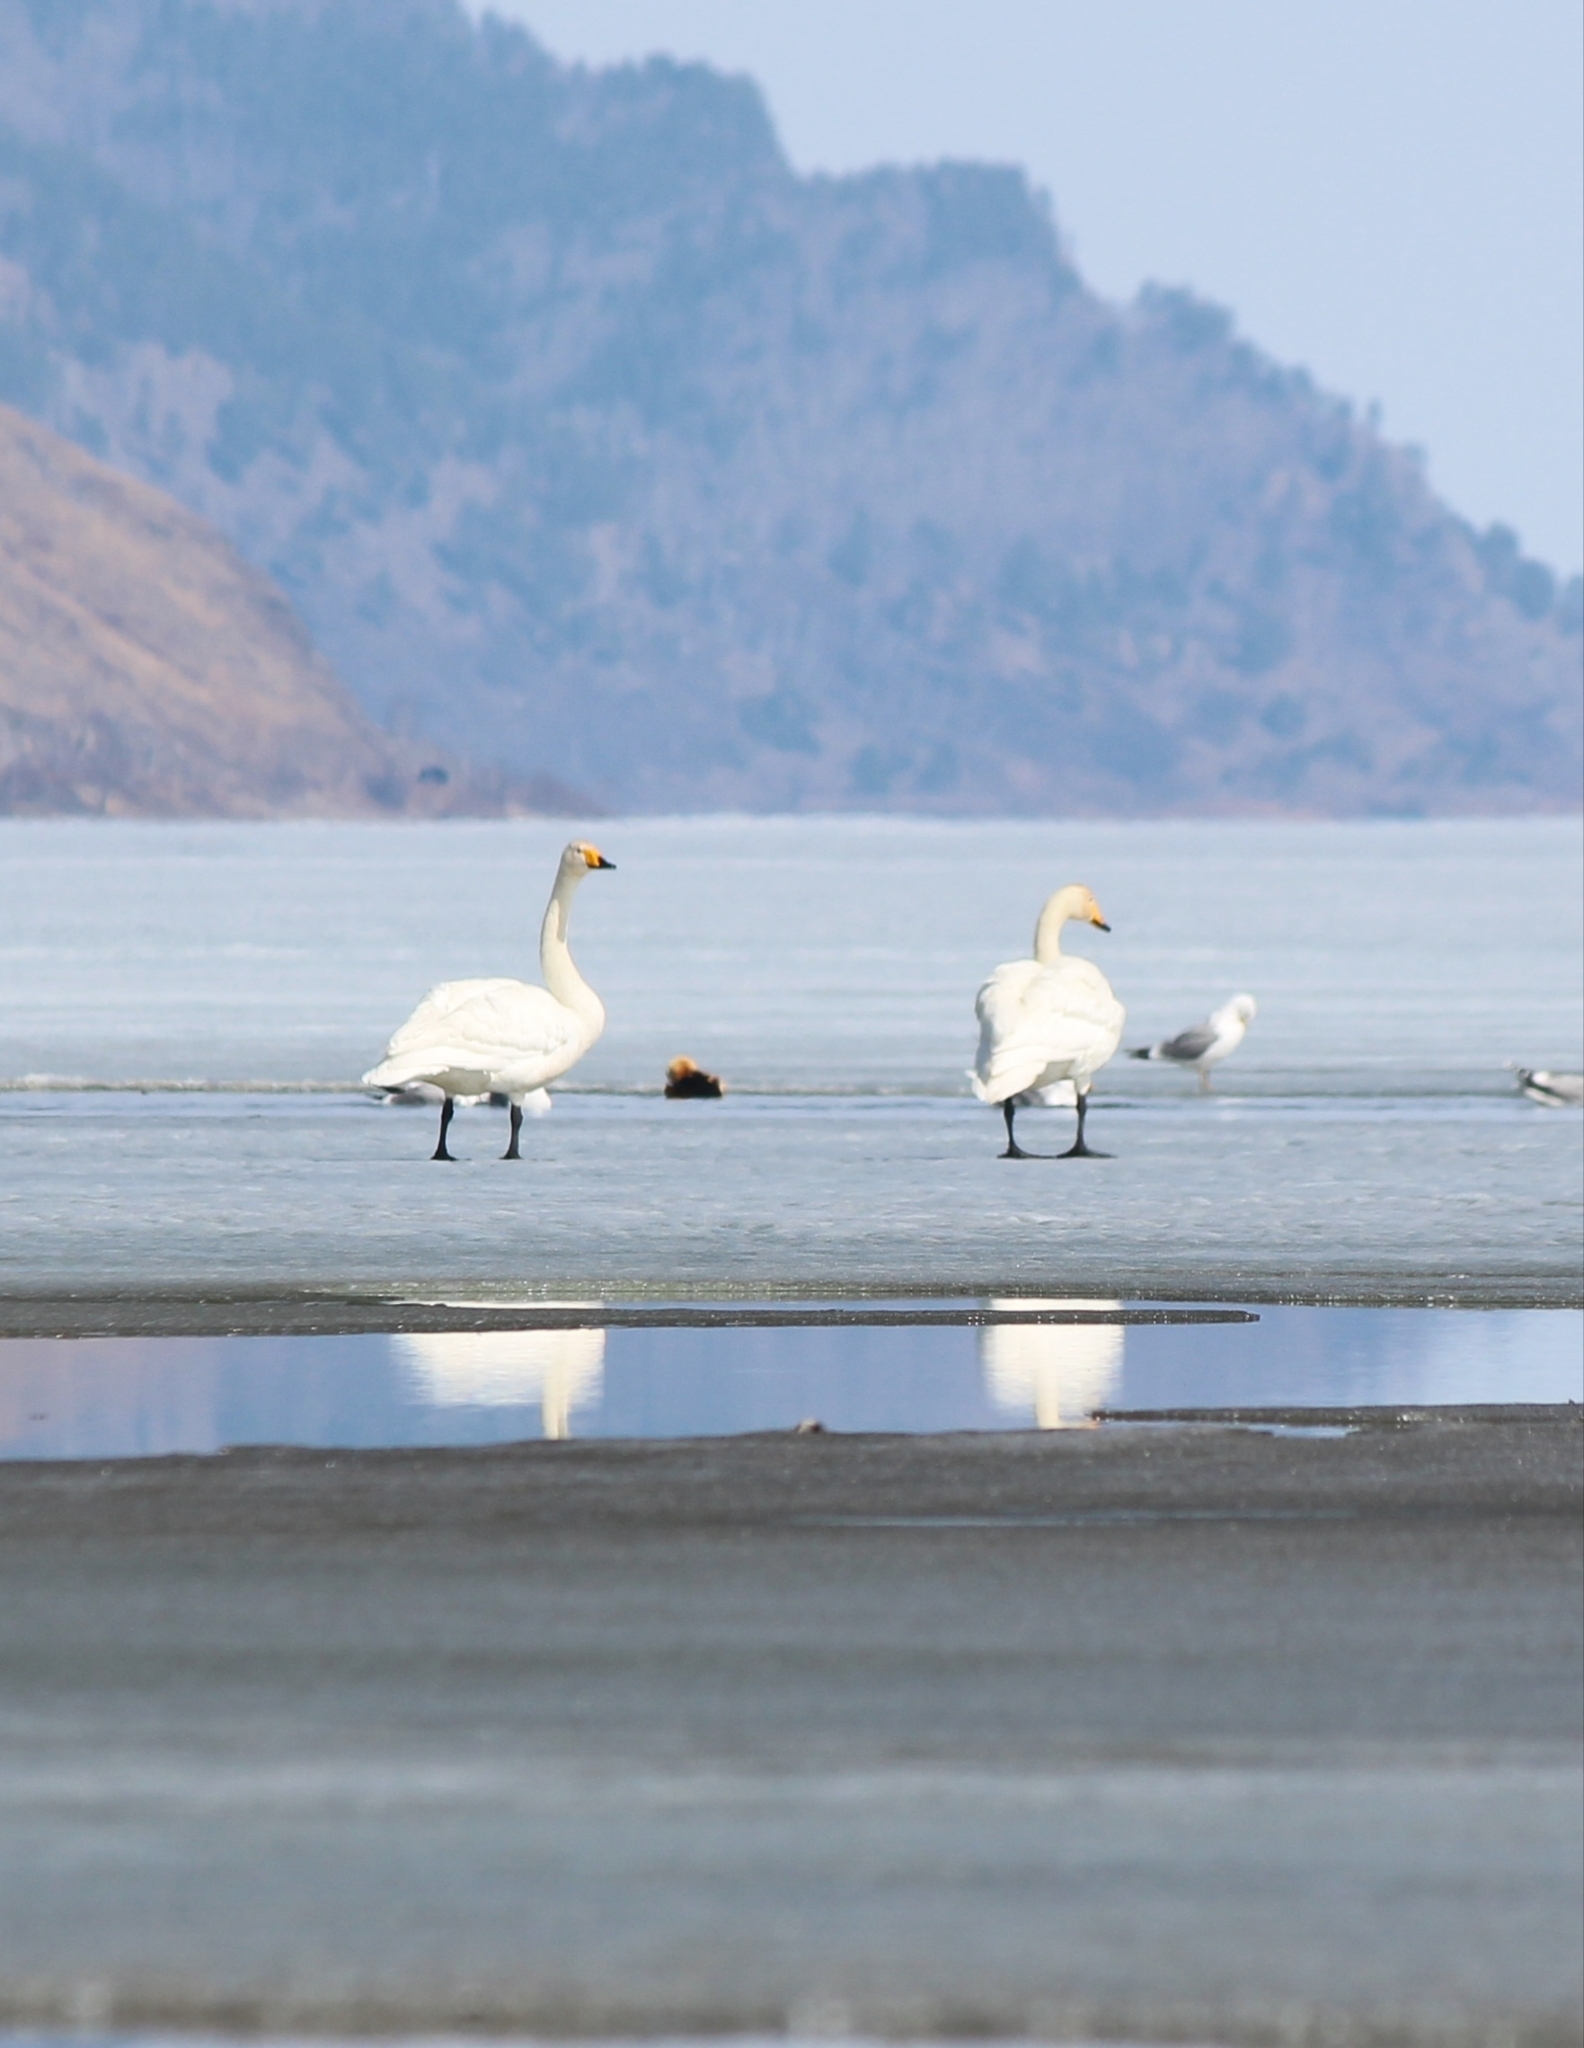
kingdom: Animalia
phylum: Chordata
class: Aves
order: Anseriformes
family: Anatidae
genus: Cygnus
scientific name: Cygnus cygnus
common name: Whooper swan
